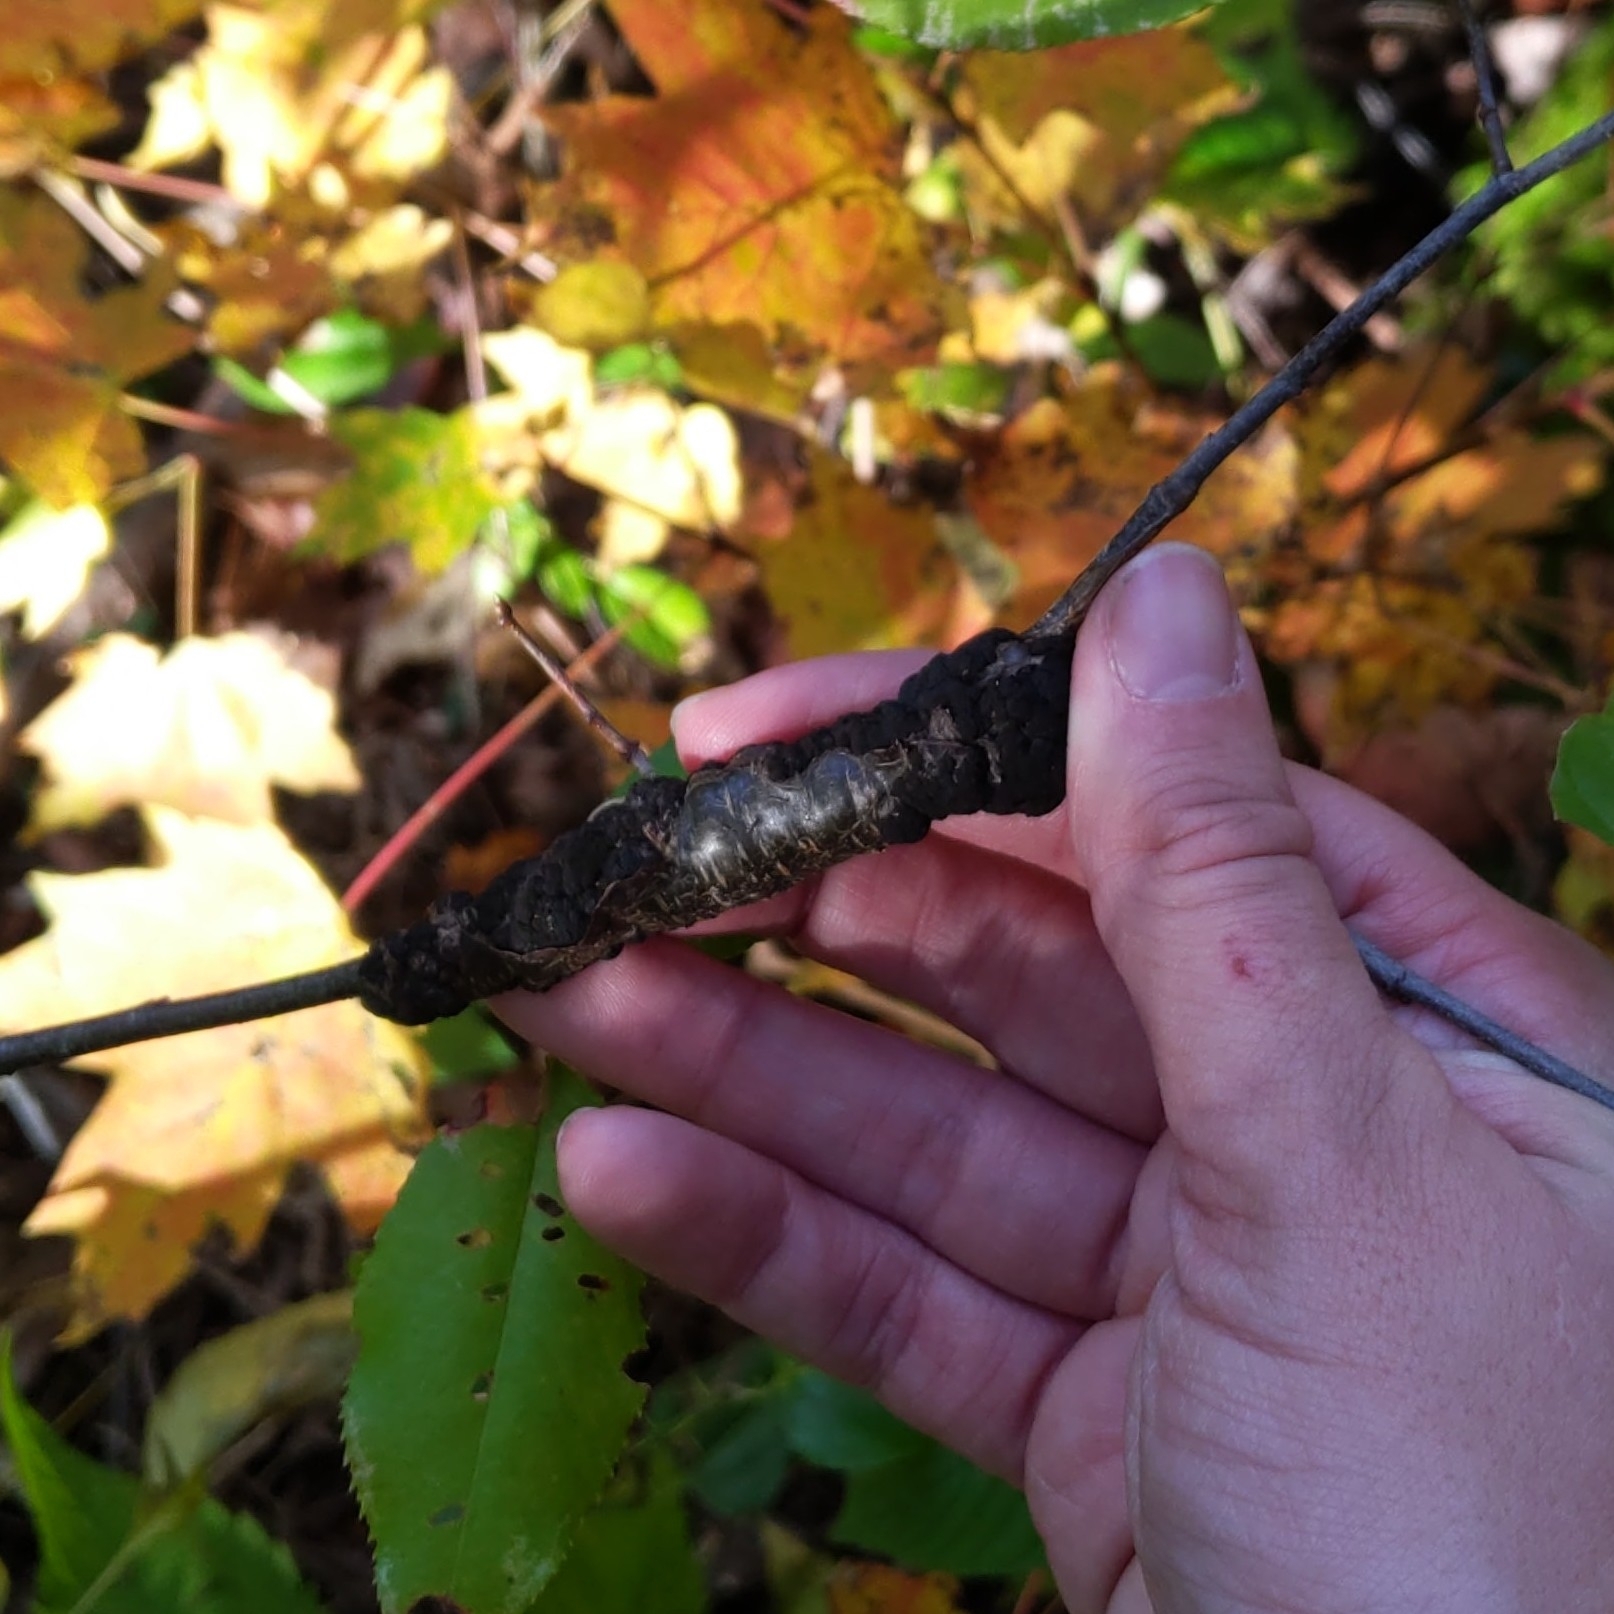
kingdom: Fungi
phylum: Ascomycota
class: Dothideomycetes
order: Venturiales
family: Venturiaceae
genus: Apiosporina
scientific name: Apiosporina morbosa
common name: Black knot
